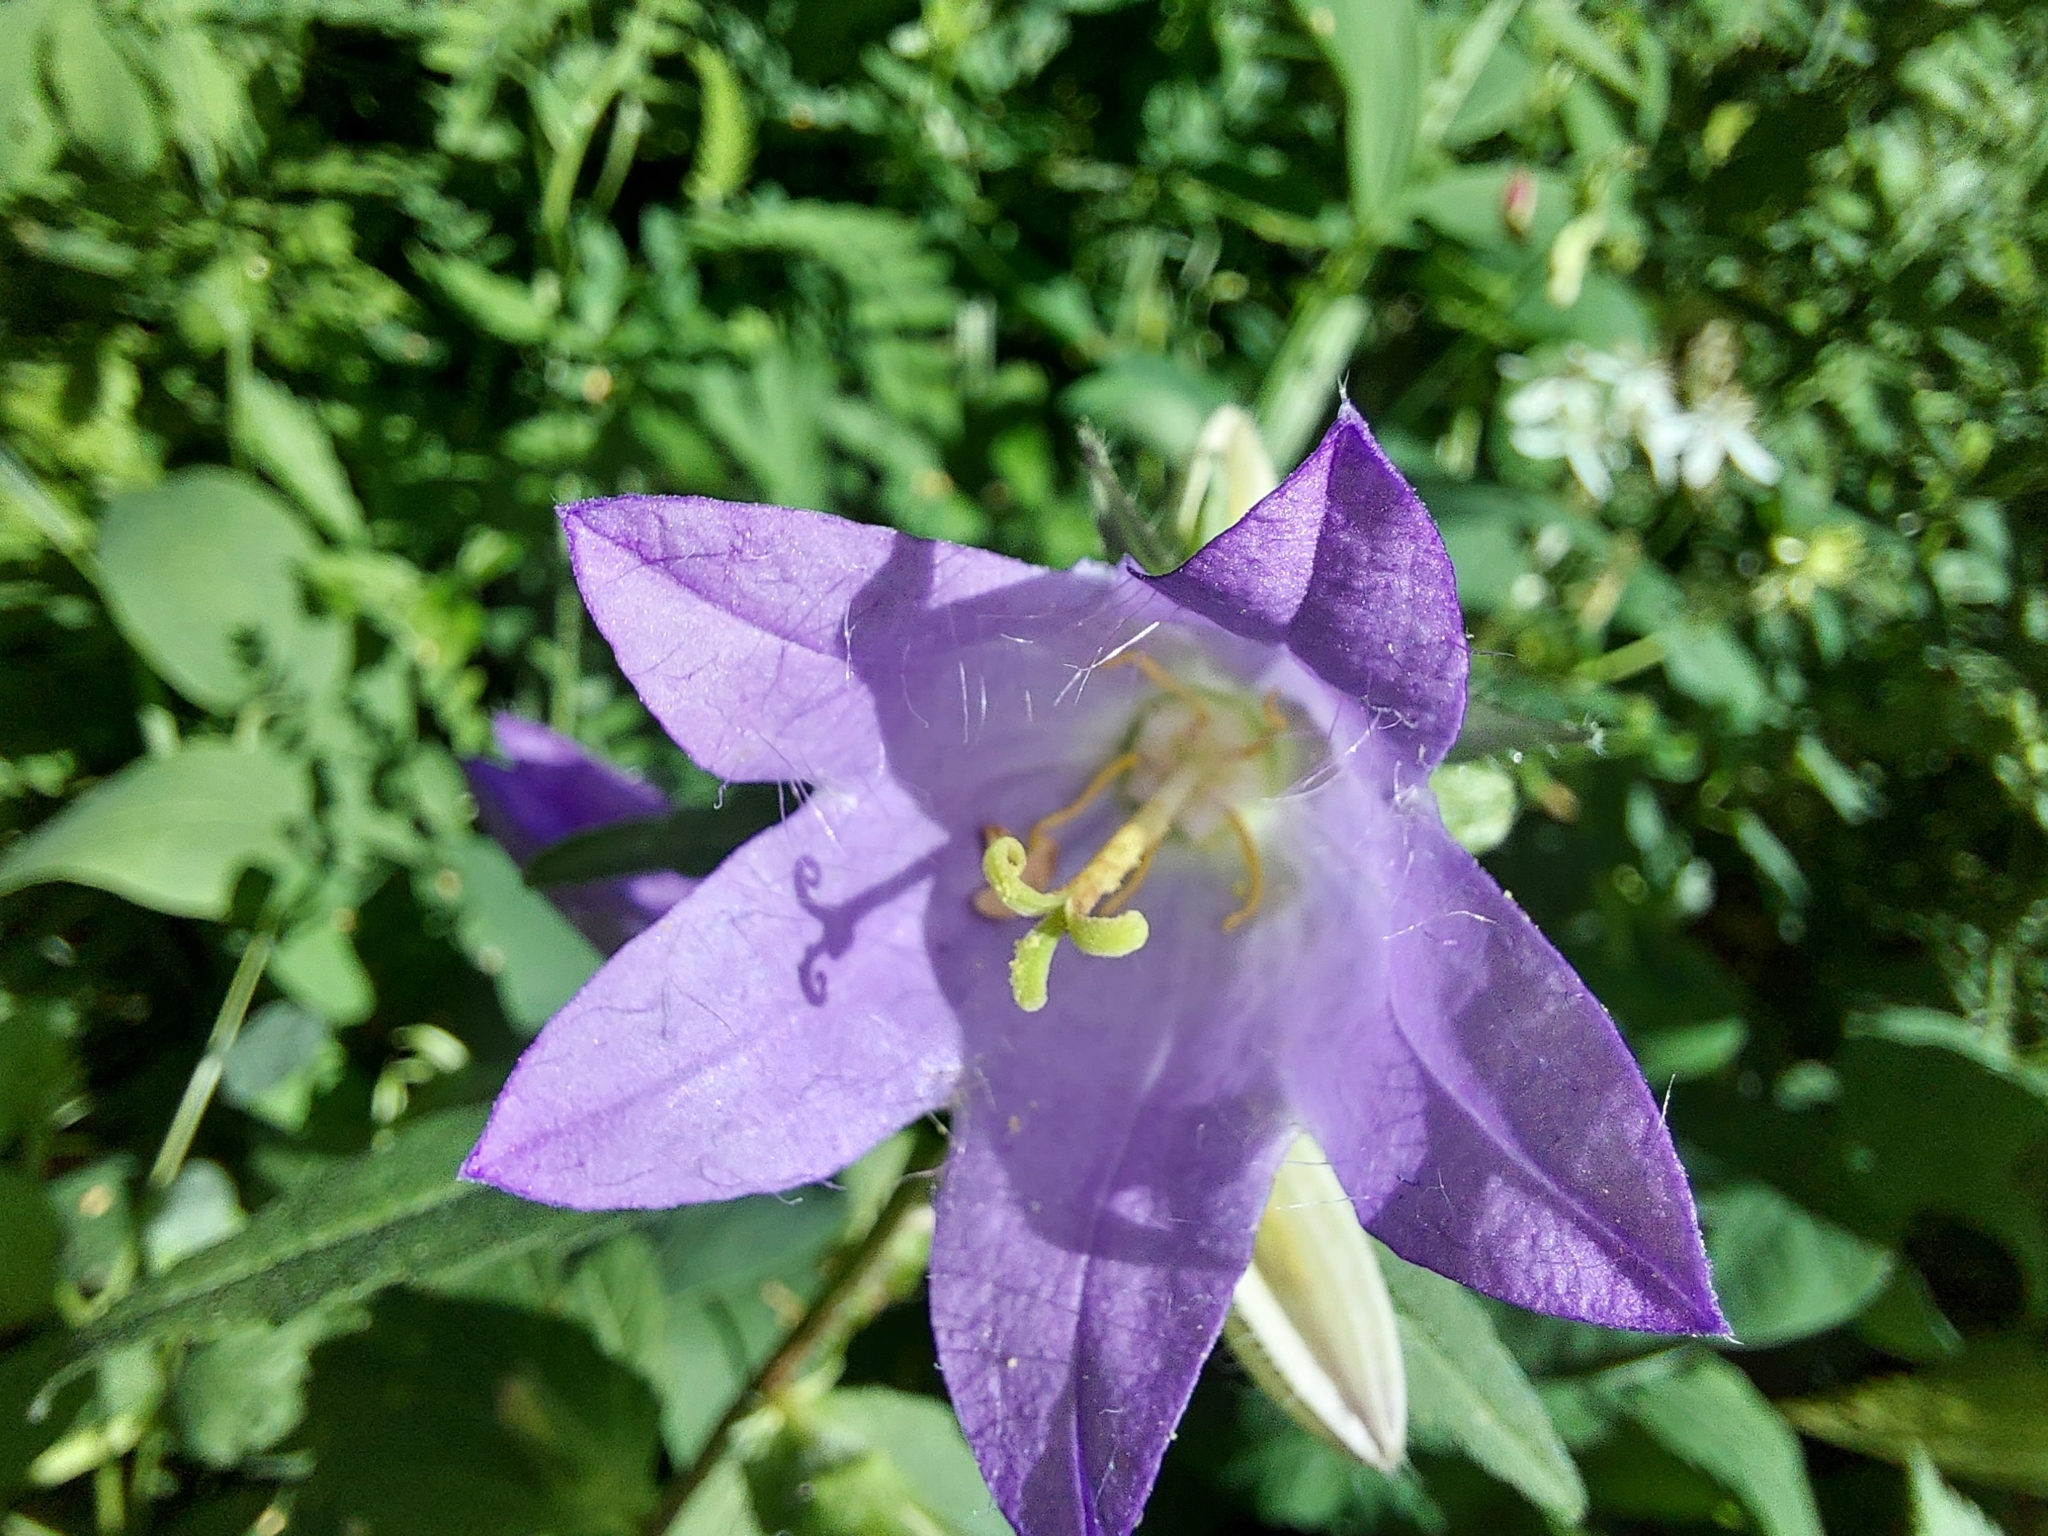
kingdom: Plantae
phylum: Tracheophyta
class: Magnoliopsida
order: Asterales
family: Campanulaceae
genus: Campanula
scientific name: Campanula trachelium
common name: Nettle-leaved bellflower
